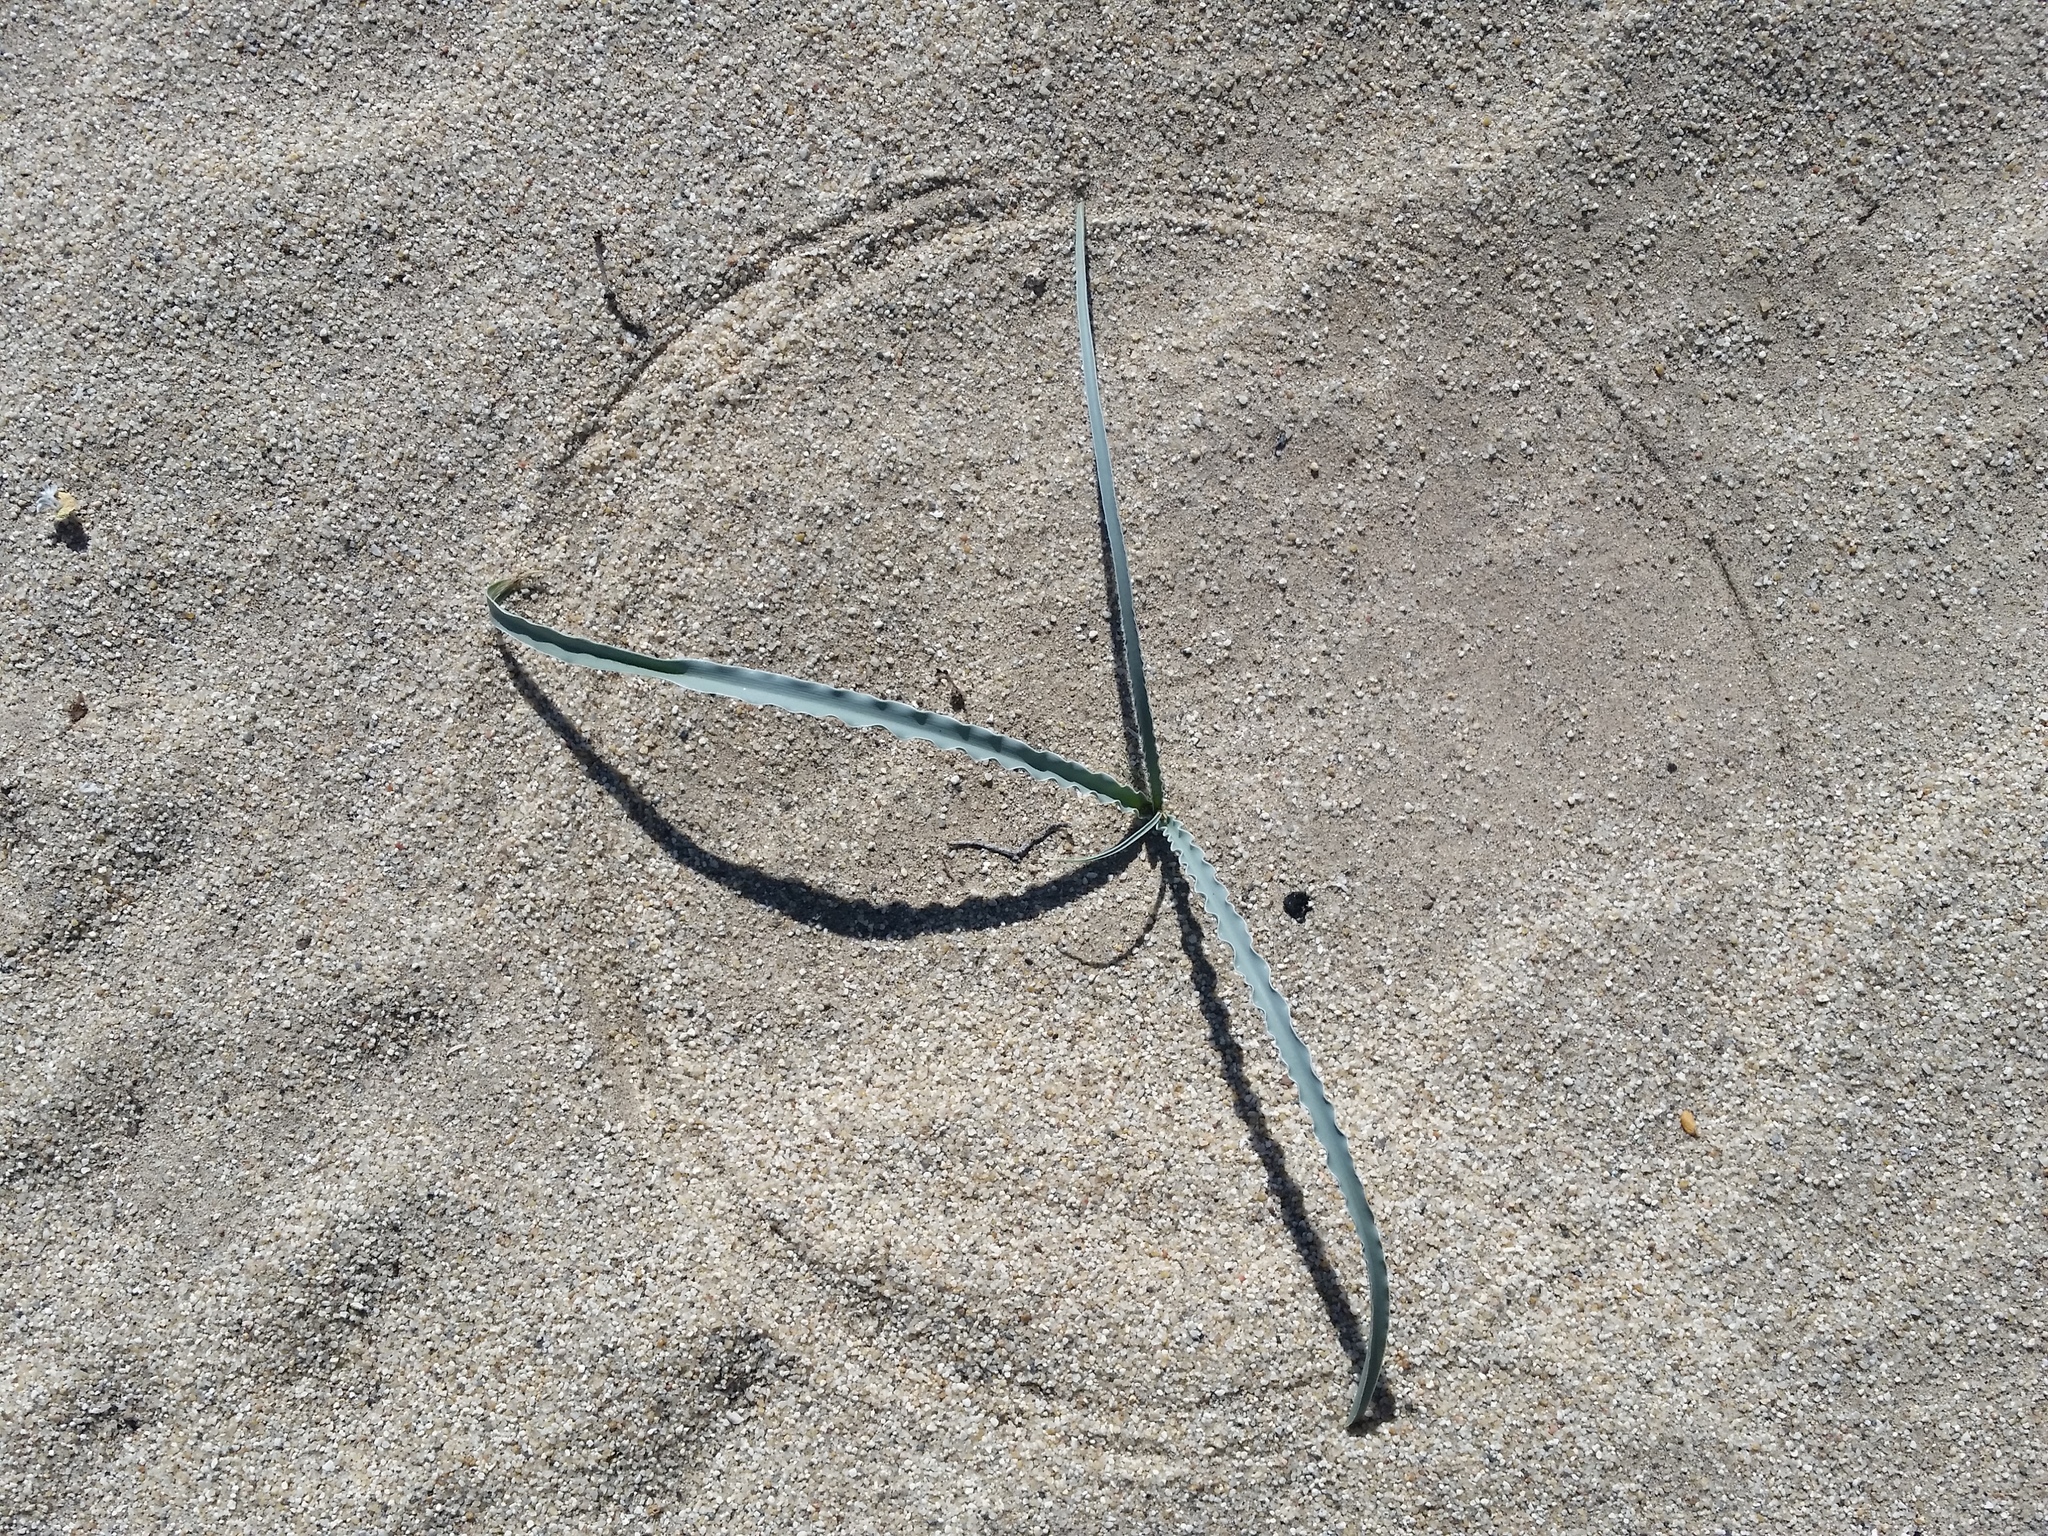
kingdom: Plantae
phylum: Tracheophyta
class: Liliopsida
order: Asparagales
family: Asparagaceae
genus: Hesperocallis
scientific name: Hesperocallis undulata
